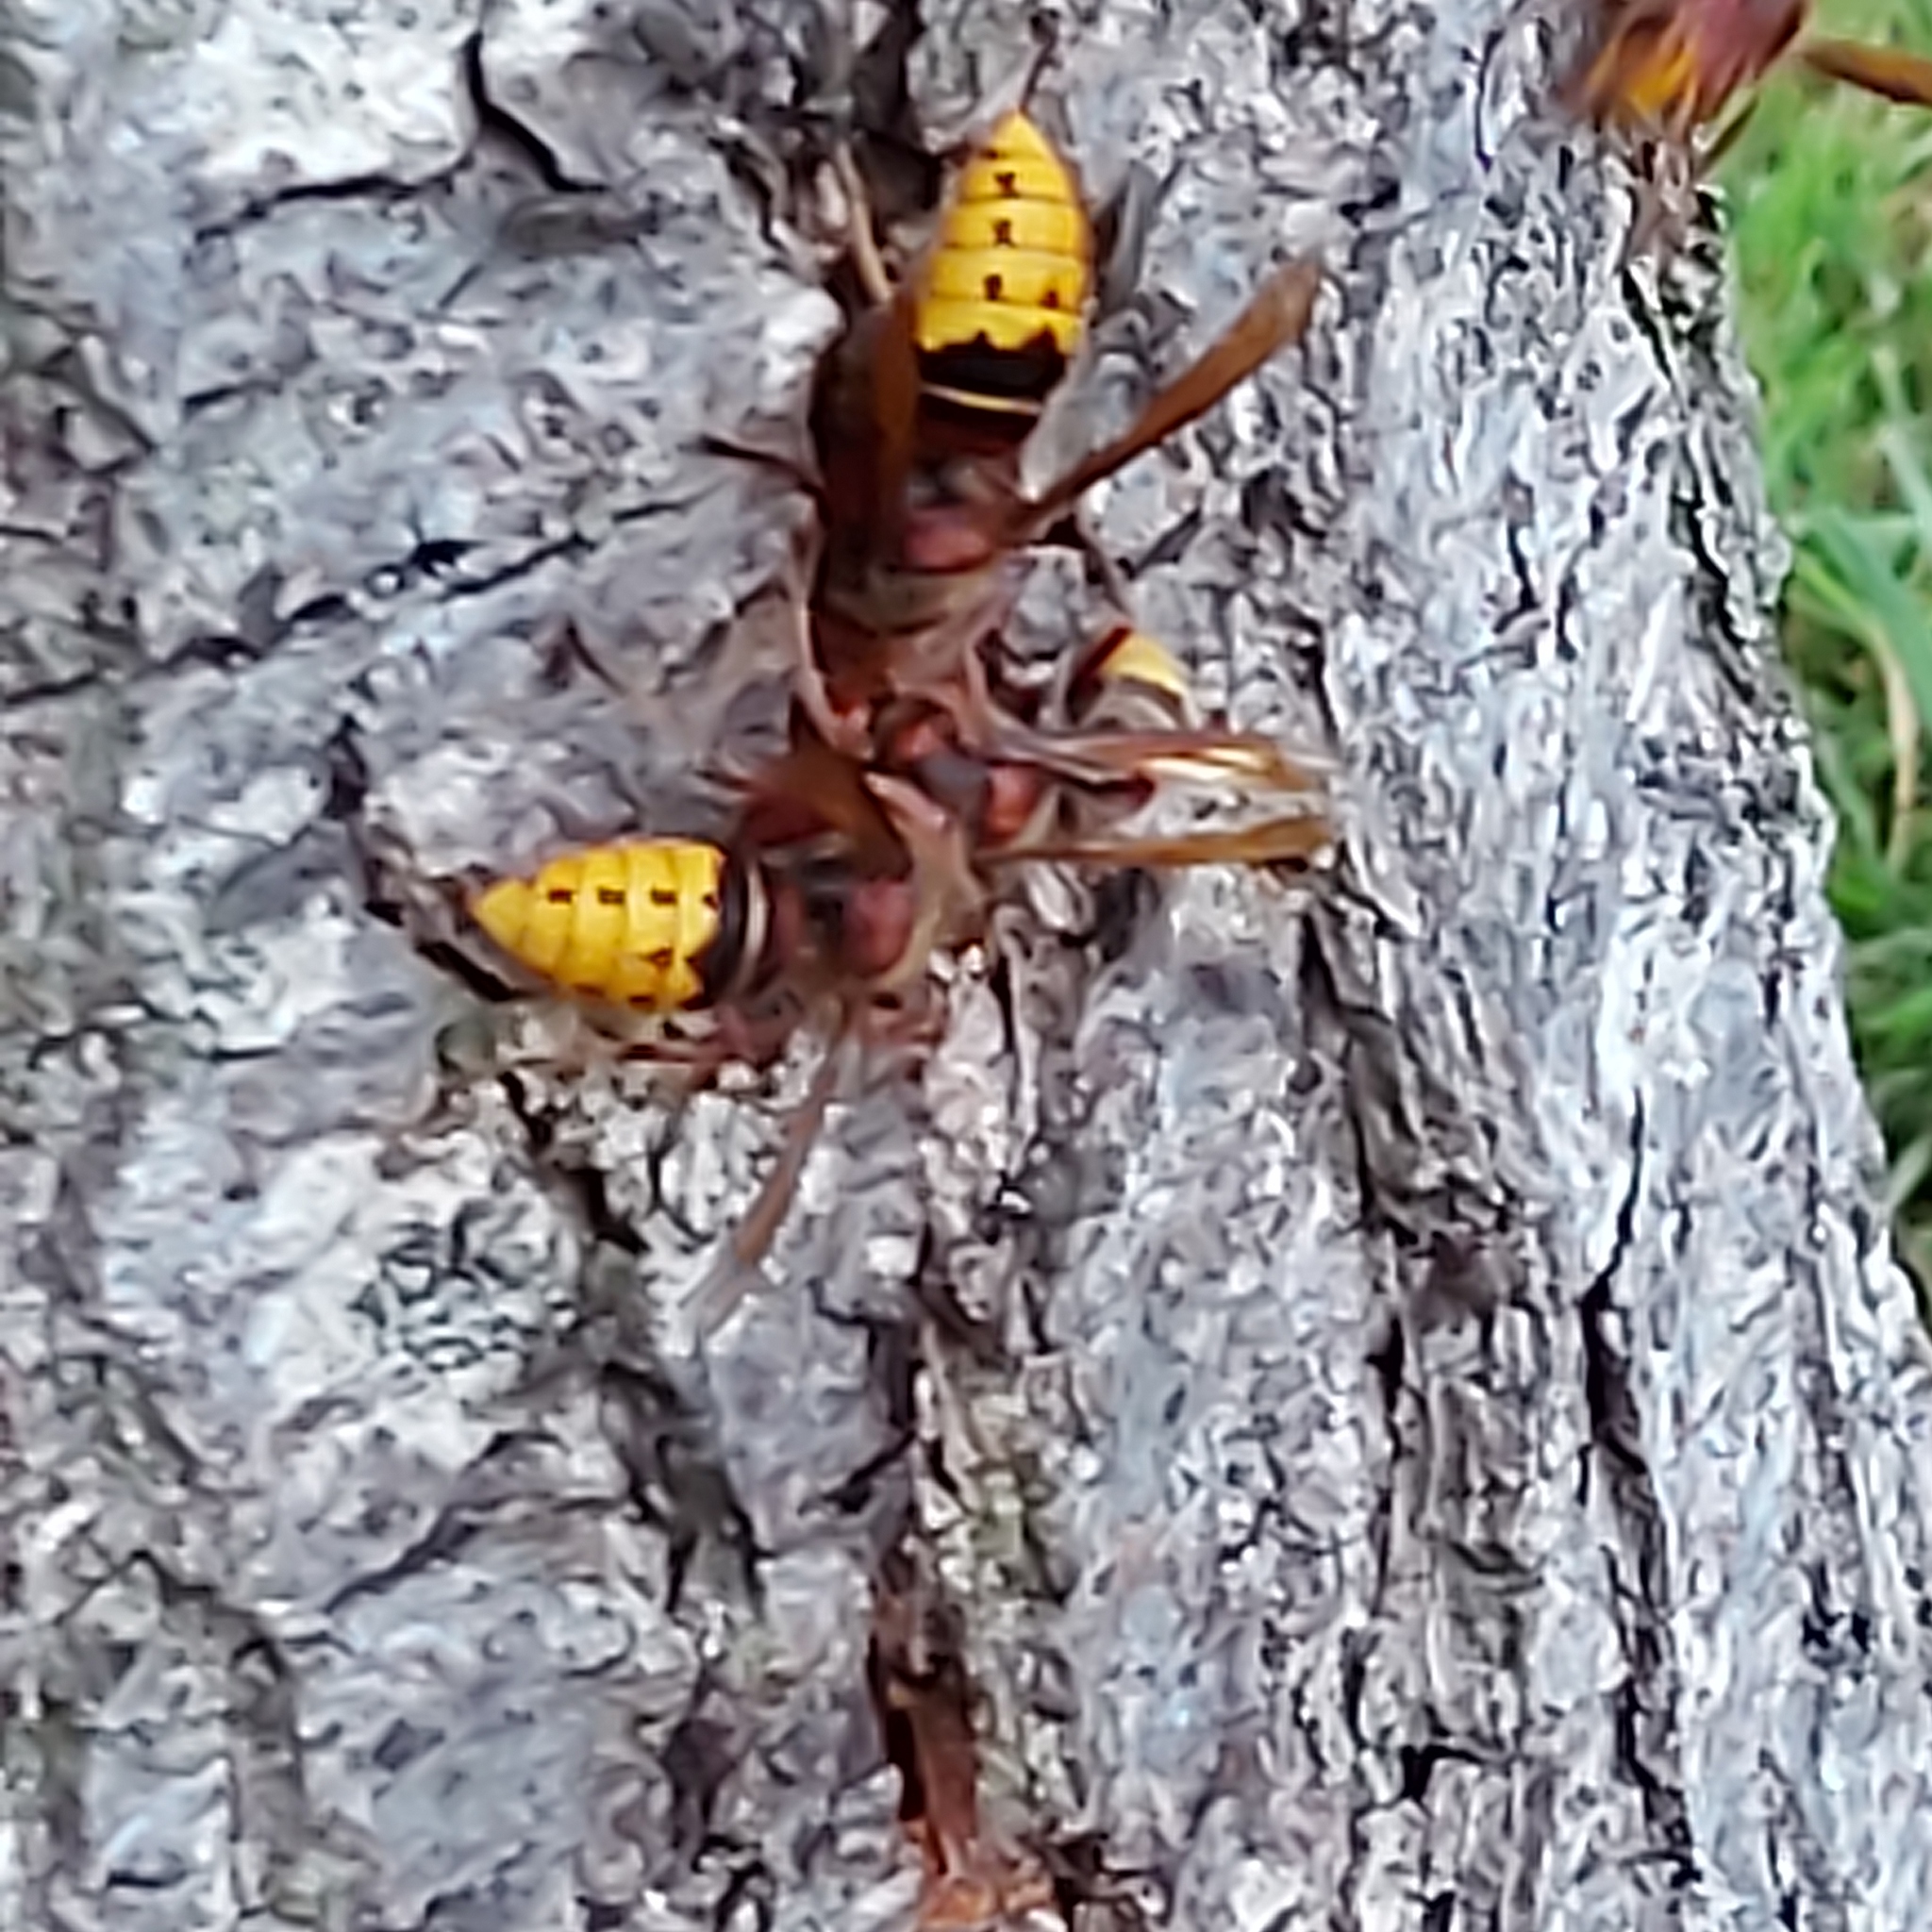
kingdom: Animalia
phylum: Arthropoda
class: Insecta
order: Hymenoptera
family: Vespidae
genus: Vespa
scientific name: Vespa crabro
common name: Hornet
